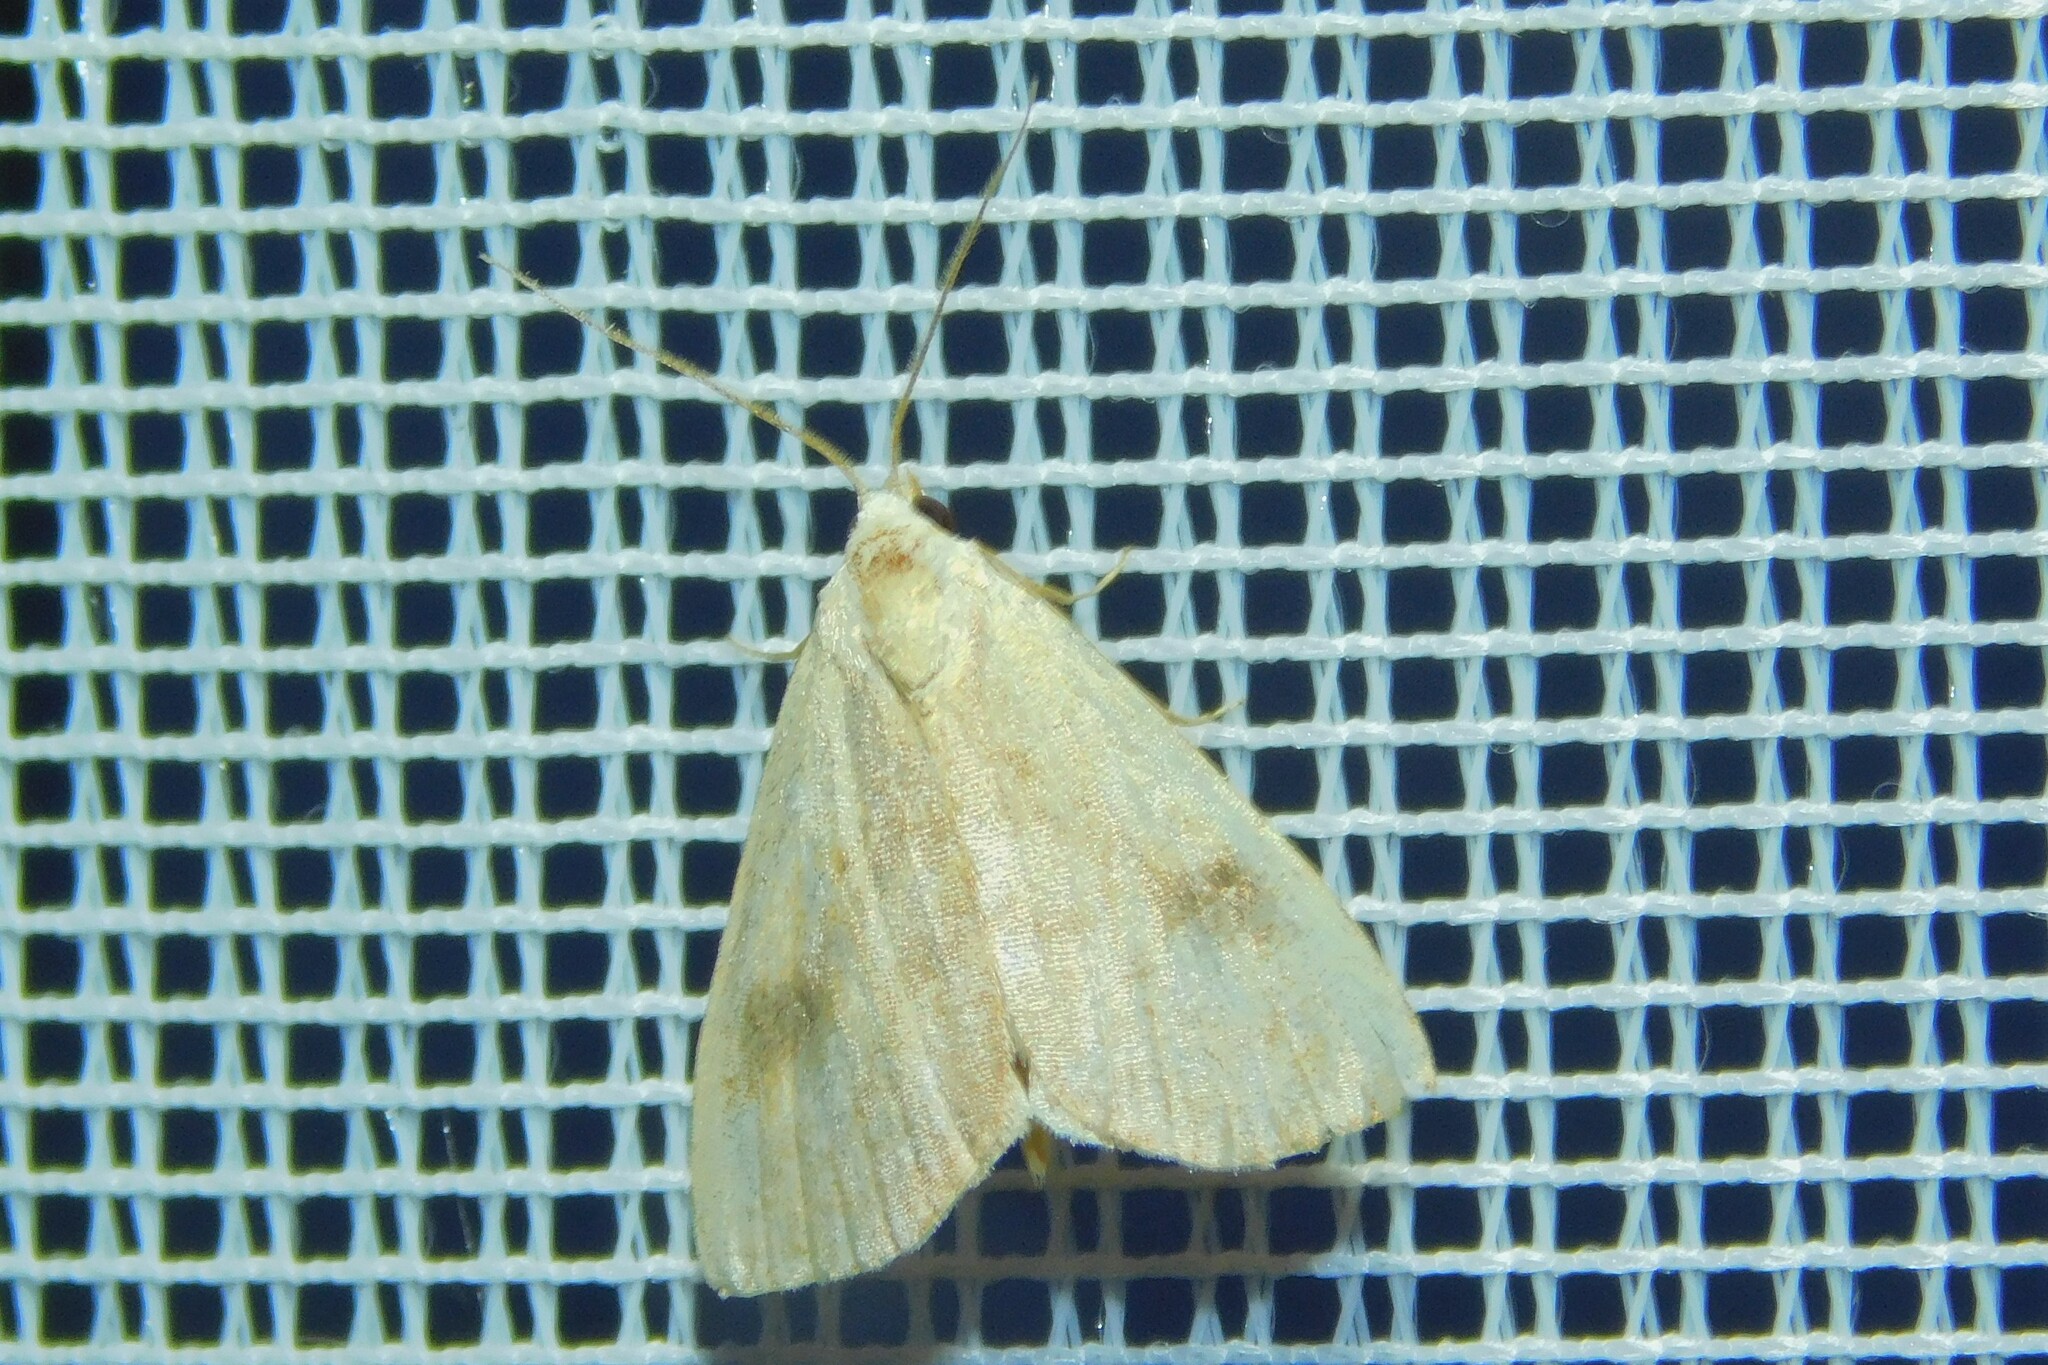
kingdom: Animalia
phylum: Arthropoda
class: Insecta
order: Lepidoptera
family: Erebidae
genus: Rivula
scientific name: Rivula sericealis
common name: Straw dot
